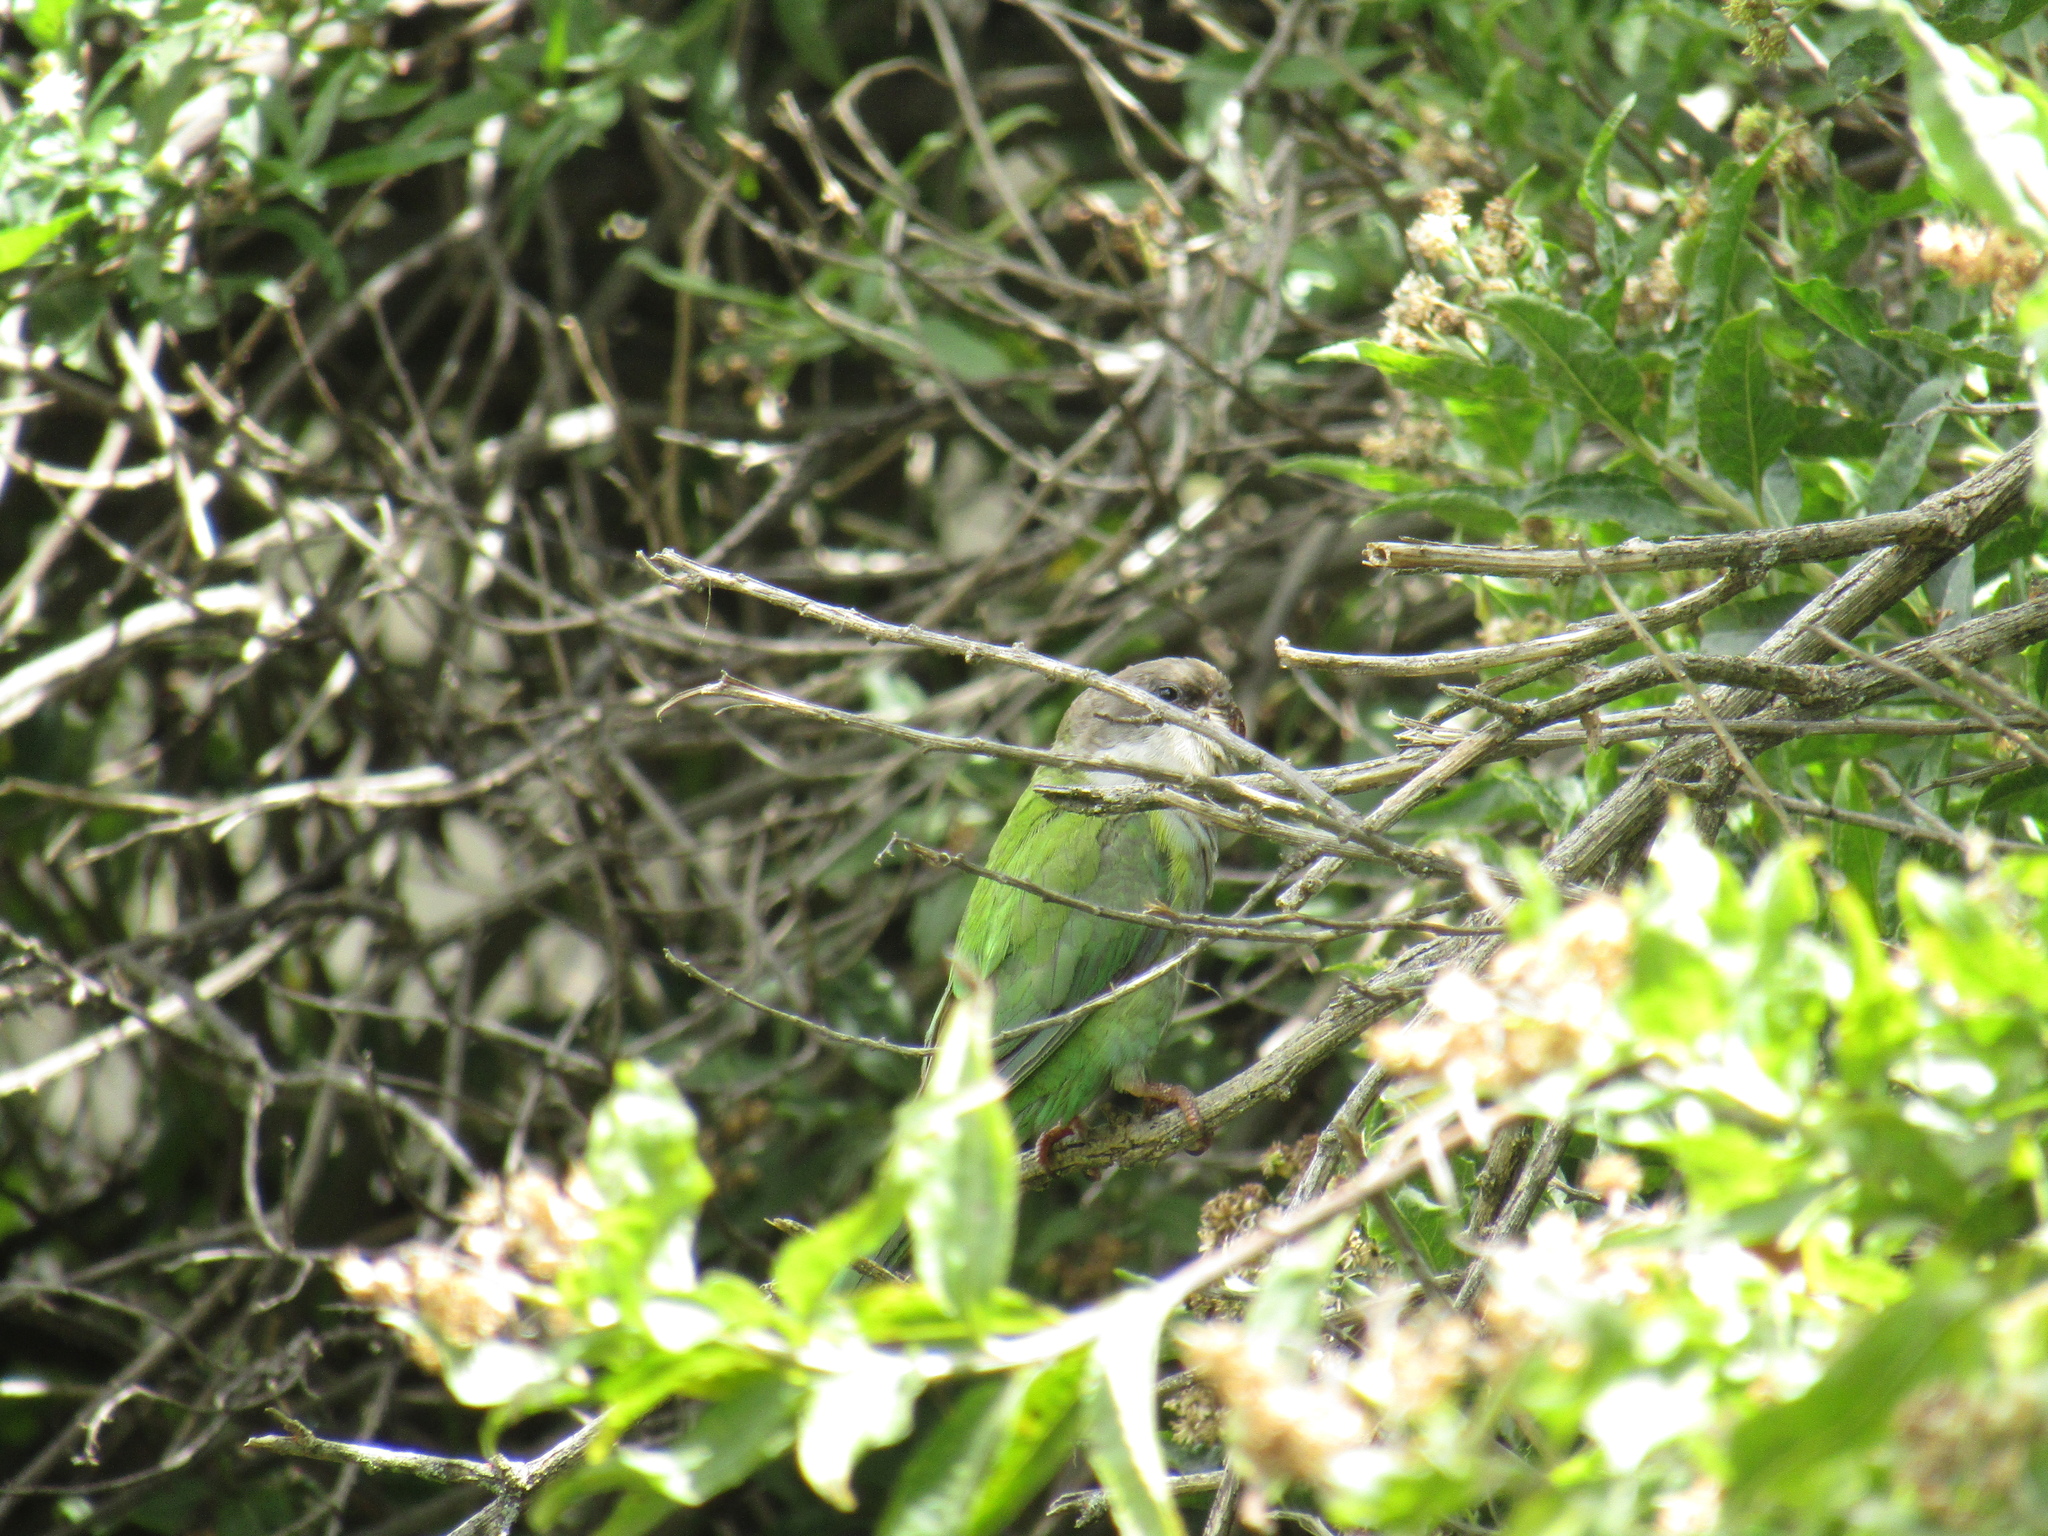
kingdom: Animalia
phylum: Chordata
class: Aves
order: Psittaciformes
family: Psittacidae
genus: Psilopsiagon
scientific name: Psilopsiagon aymara
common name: Grey-hooded parakeet
